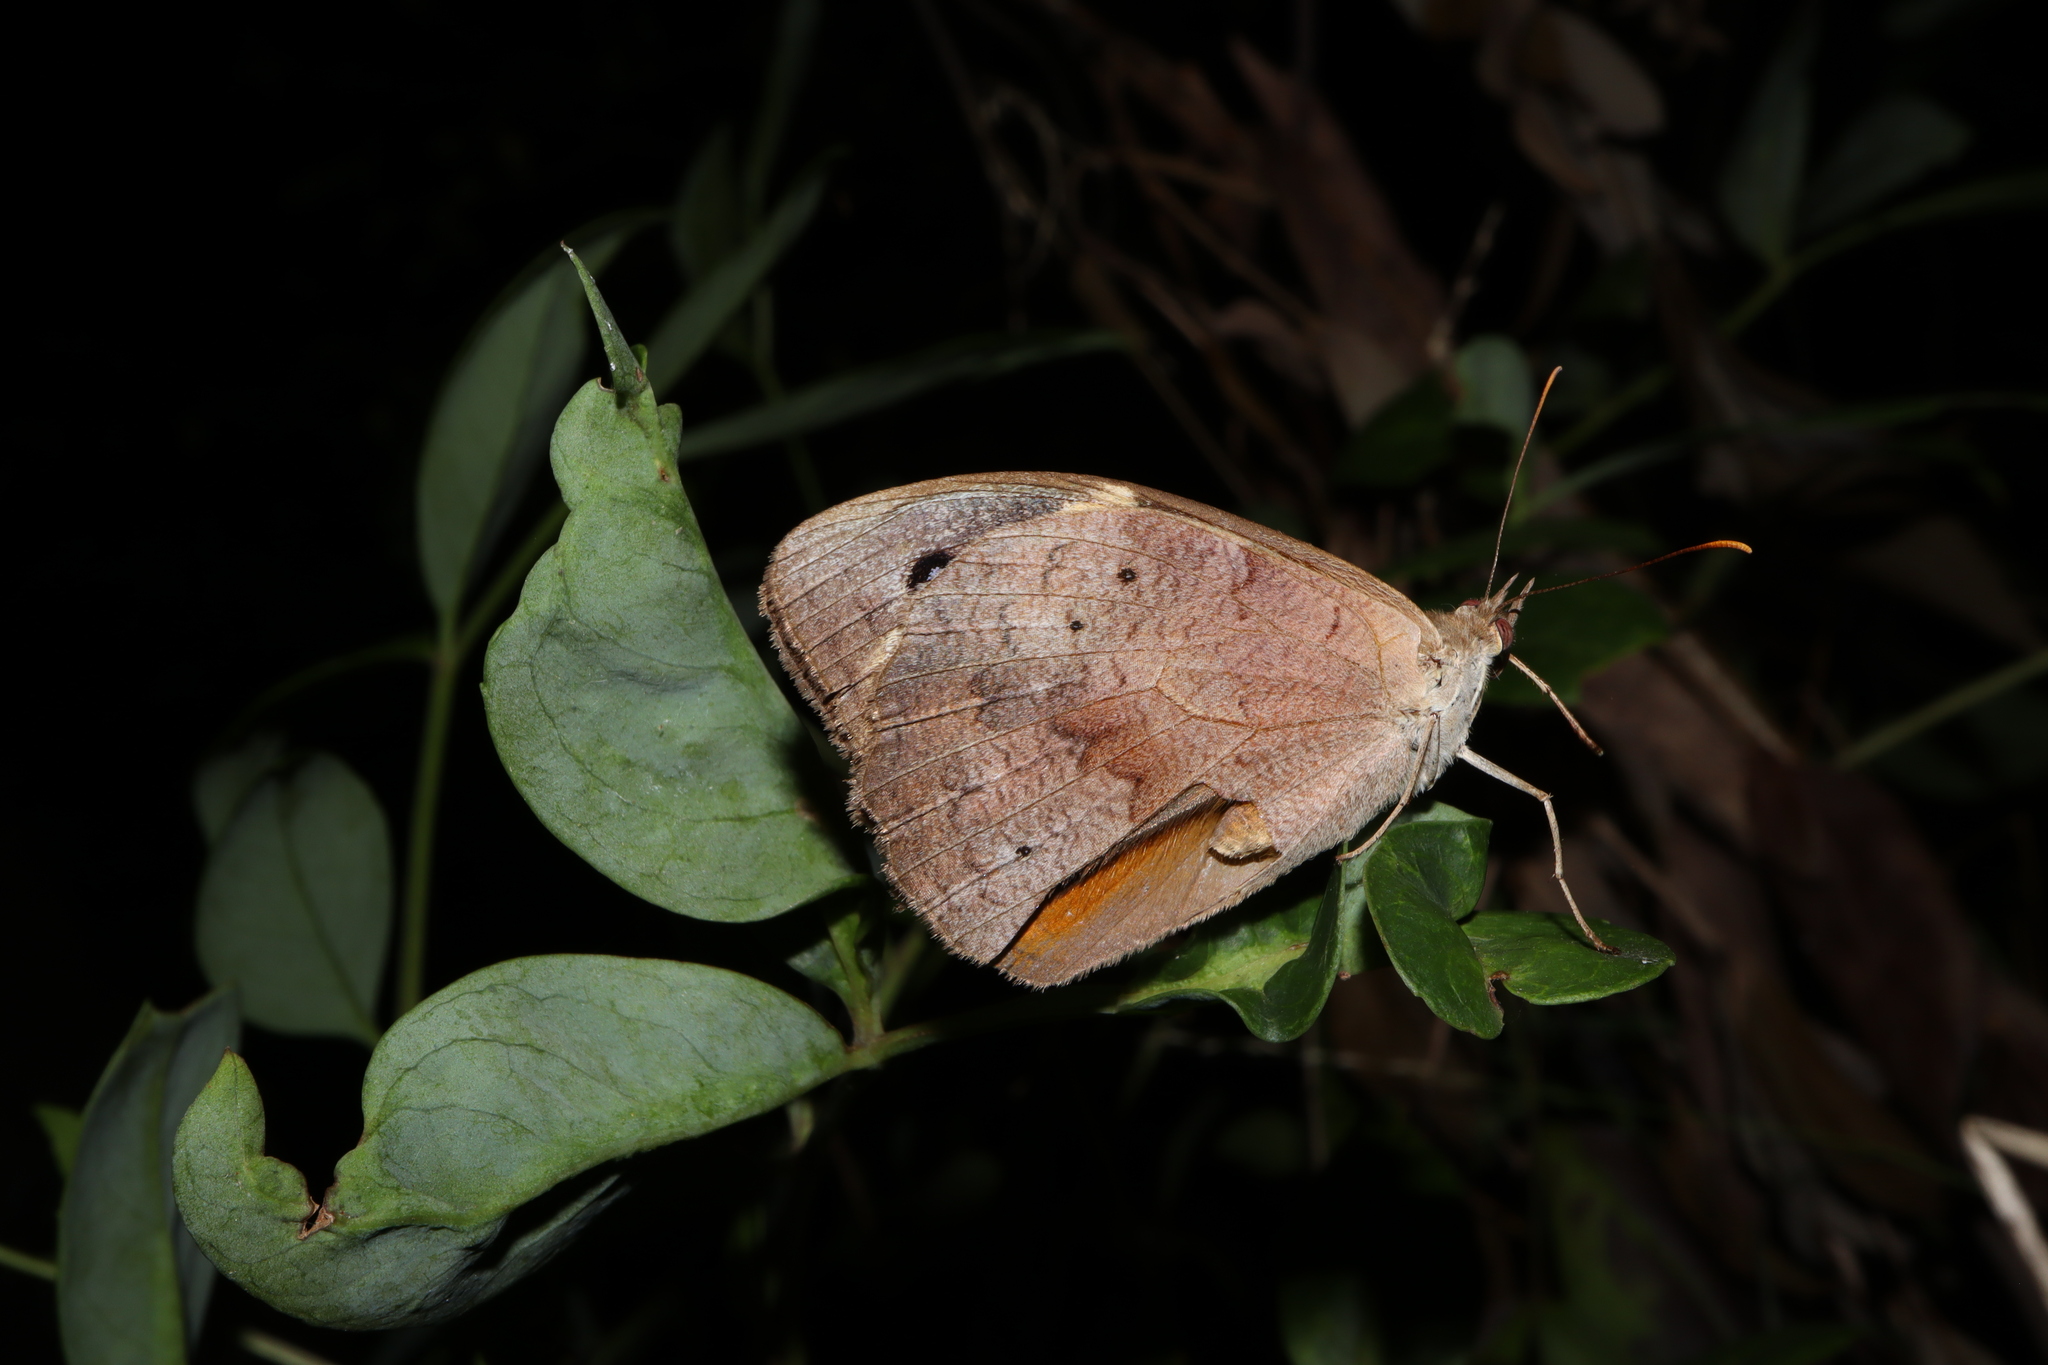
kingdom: Animalia
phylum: Arthropoda
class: Insecta
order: Lepidoptera
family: Nymphalidae
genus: Heteronympha
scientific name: Heteronympha merope
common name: Common brown
